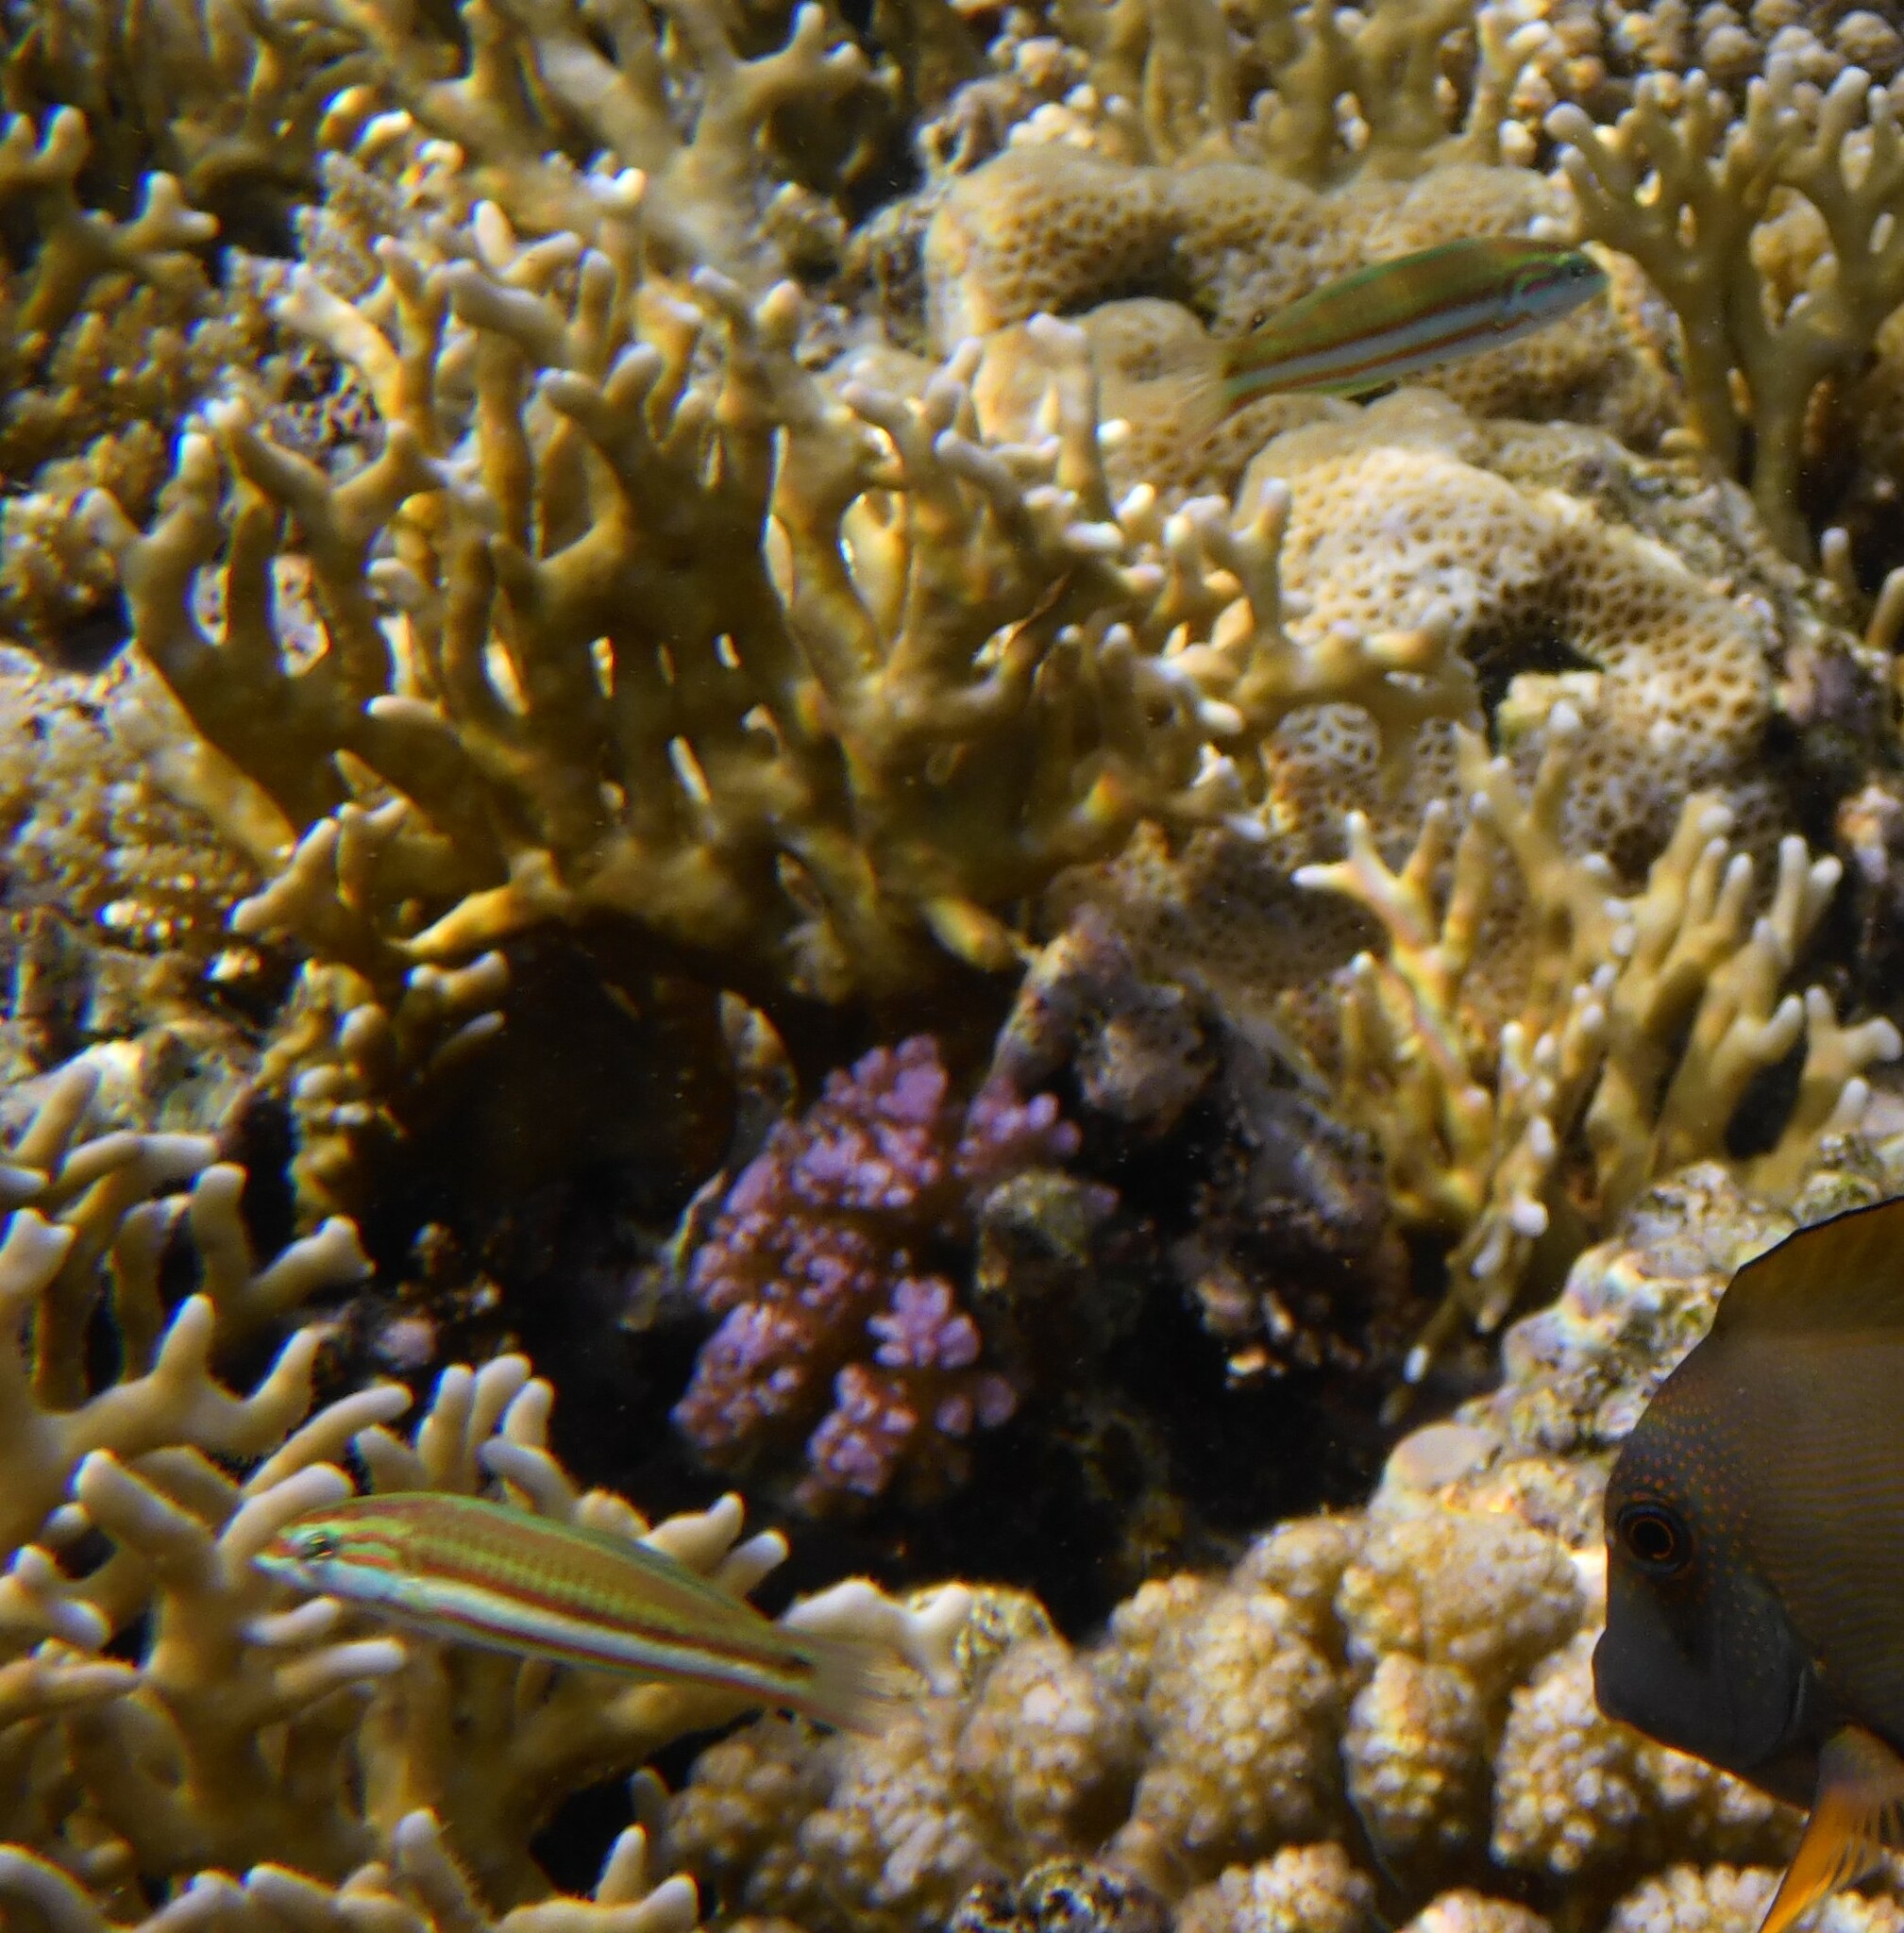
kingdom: Animalia
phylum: Chordata
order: Perciformes
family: Labridae
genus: Thalassoma
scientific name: Thalassoma rueppellii
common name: Klunzinger's wrasse
